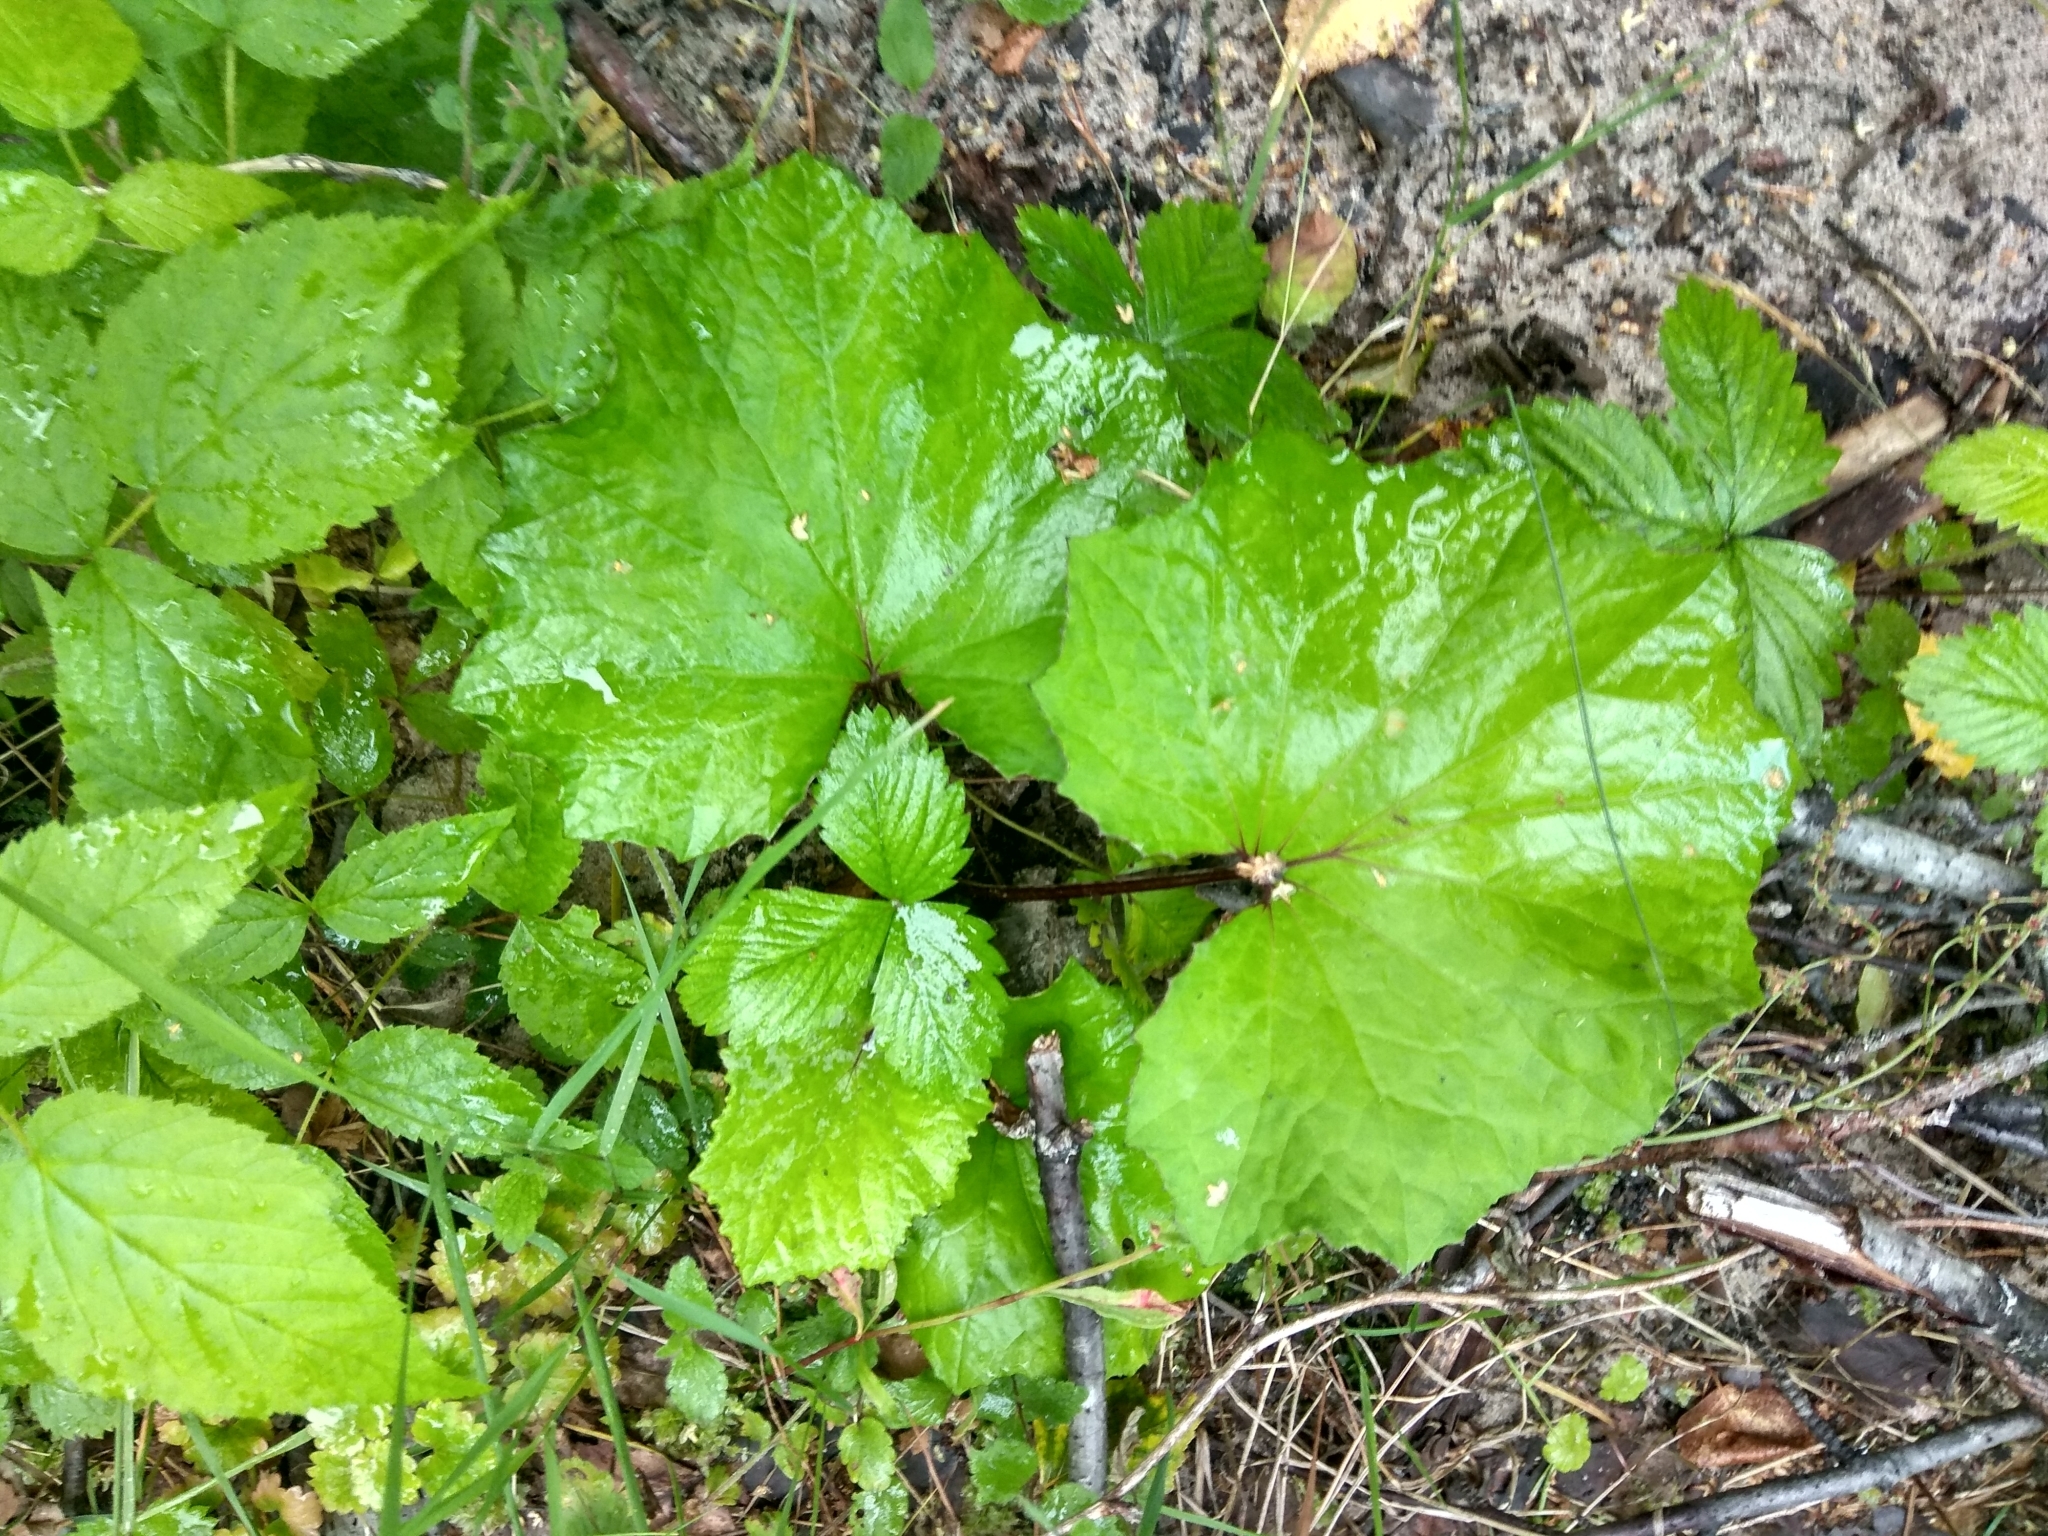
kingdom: Plantae
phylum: Tracheophyta
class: Magnoliopsida
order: Asterales
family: Asteraceae
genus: Tussilago
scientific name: Tussilago farfara
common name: Coltsfoot
